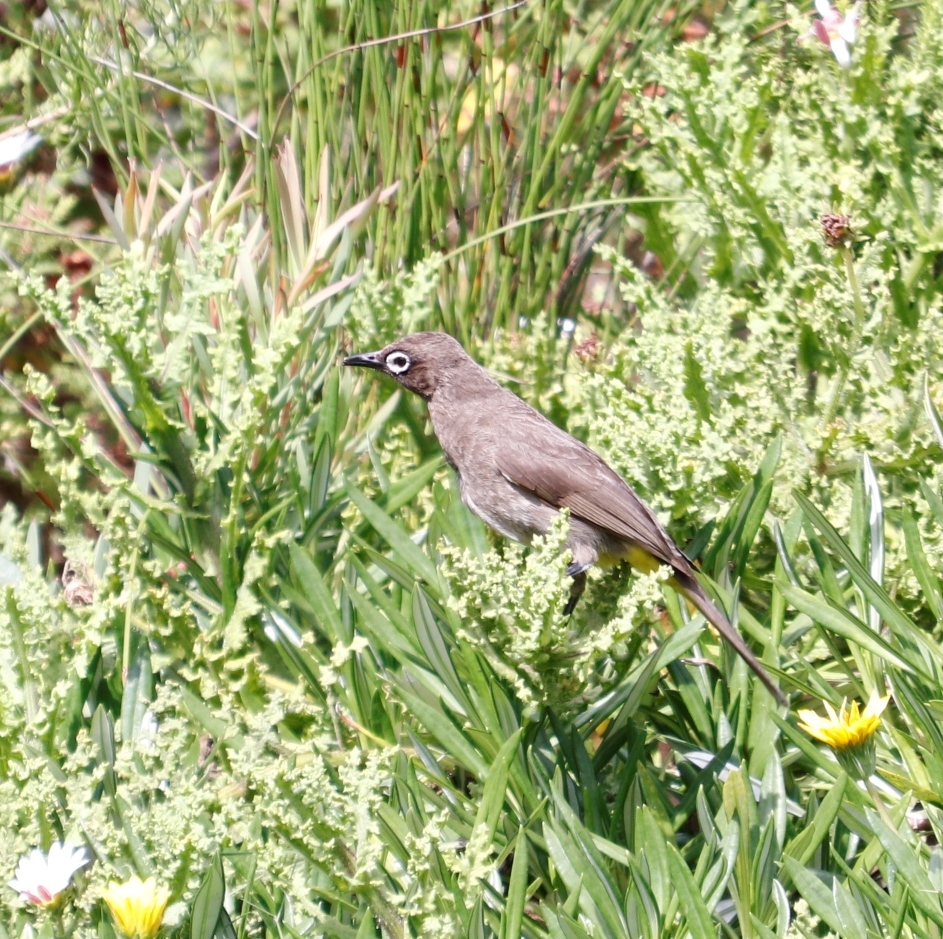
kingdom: Animalia
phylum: Chordata
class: Aves
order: Passeriformes
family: Pycnonotidae
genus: Pycnonotus
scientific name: Pycnonotus capensis
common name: Cape bulbul
